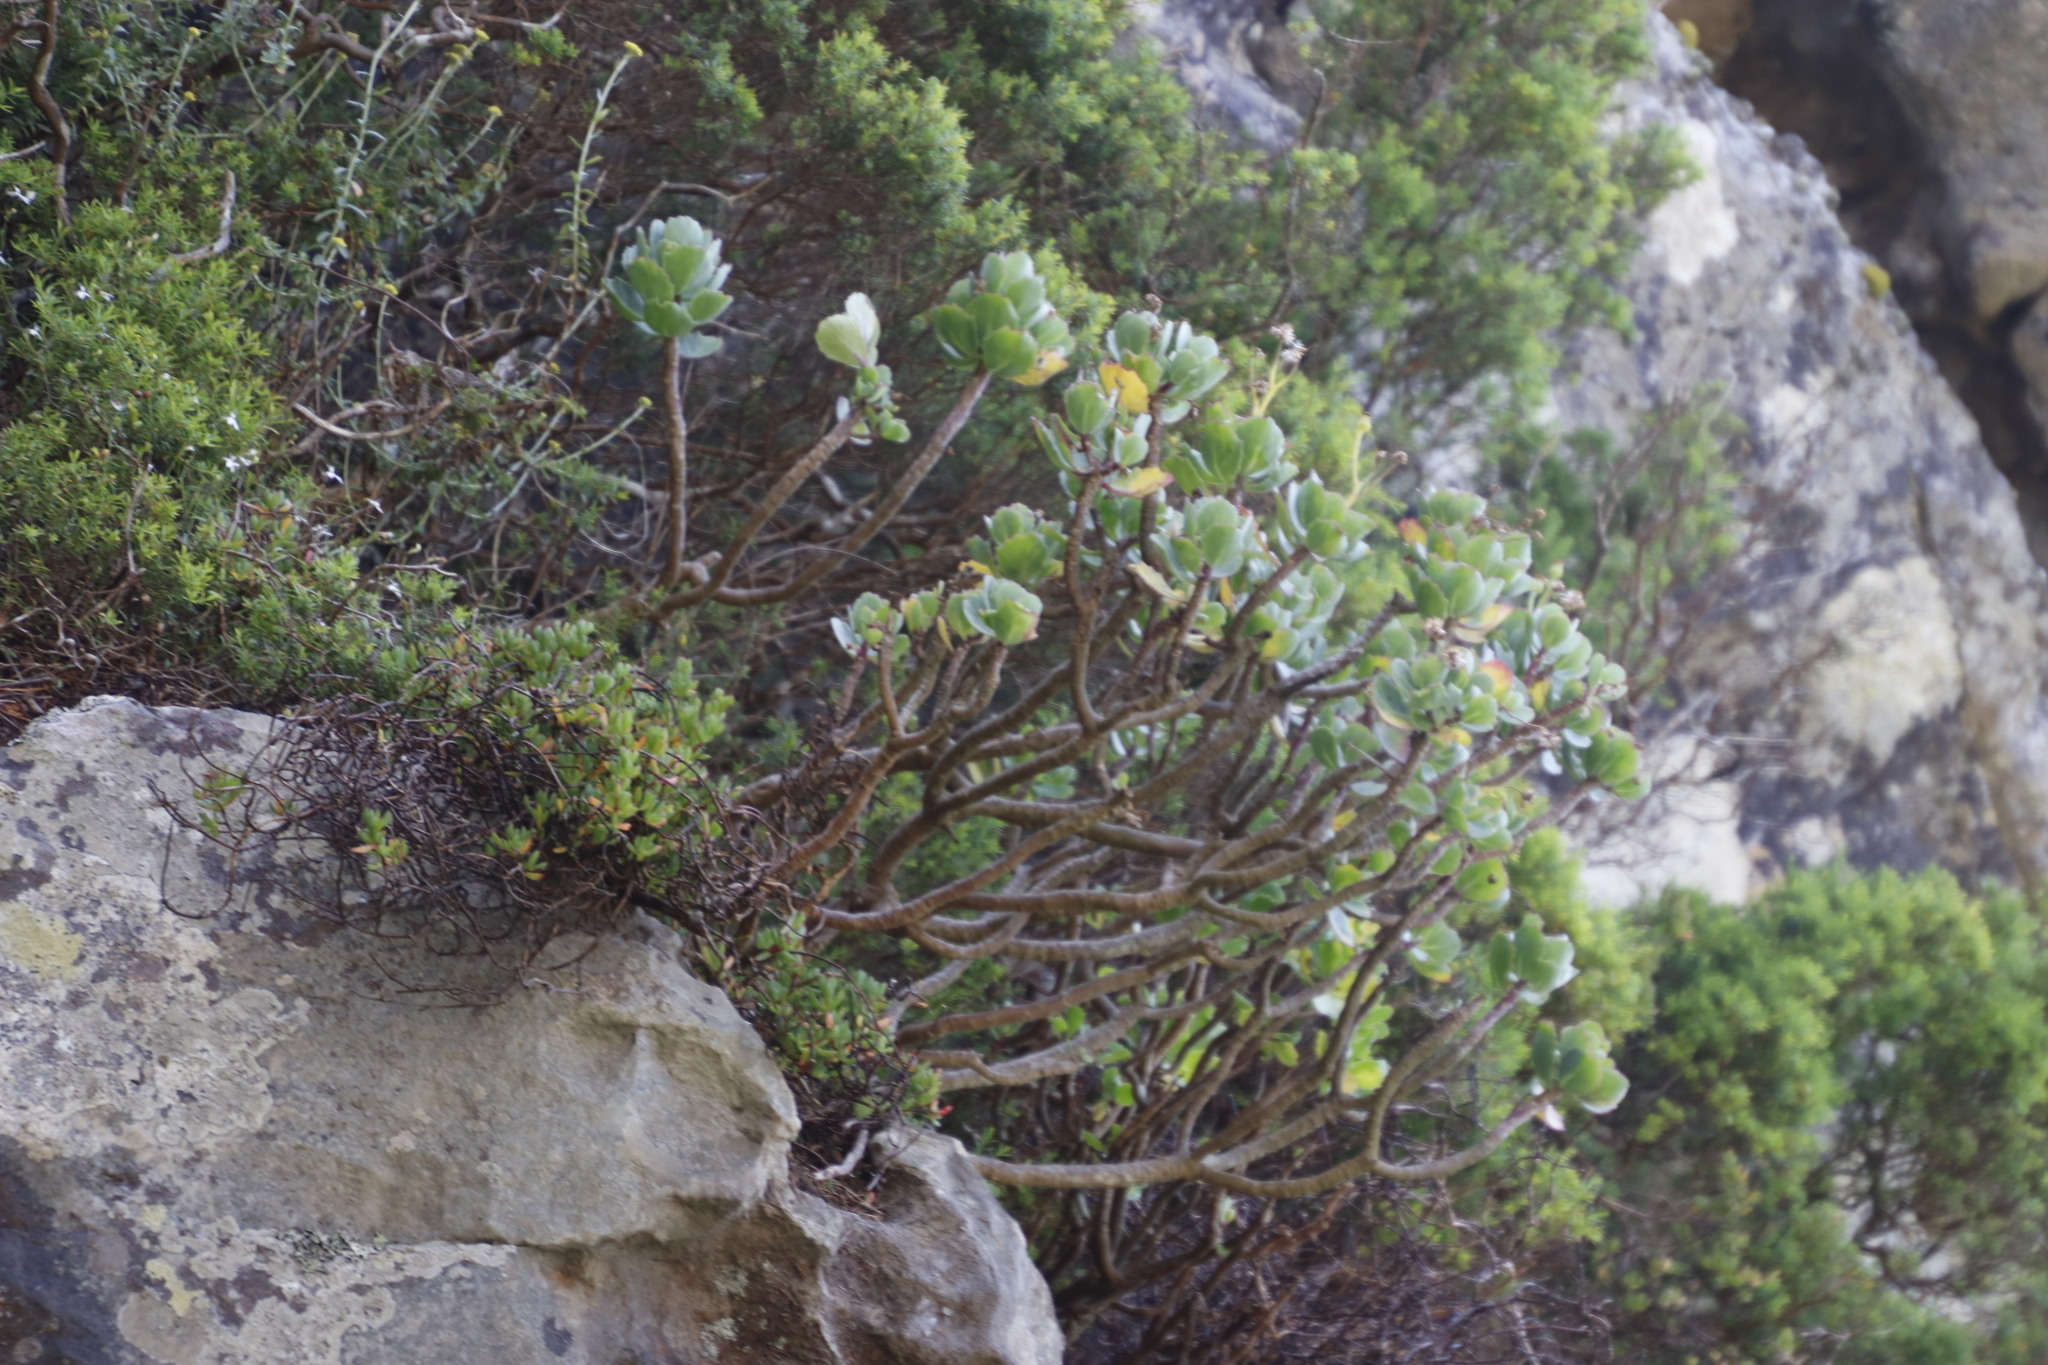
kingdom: Plantae
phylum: Tracheophyta
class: Magnoliopsida
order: Asterales
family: Asteraceae
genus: Othonna
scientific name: Othonna dentata
